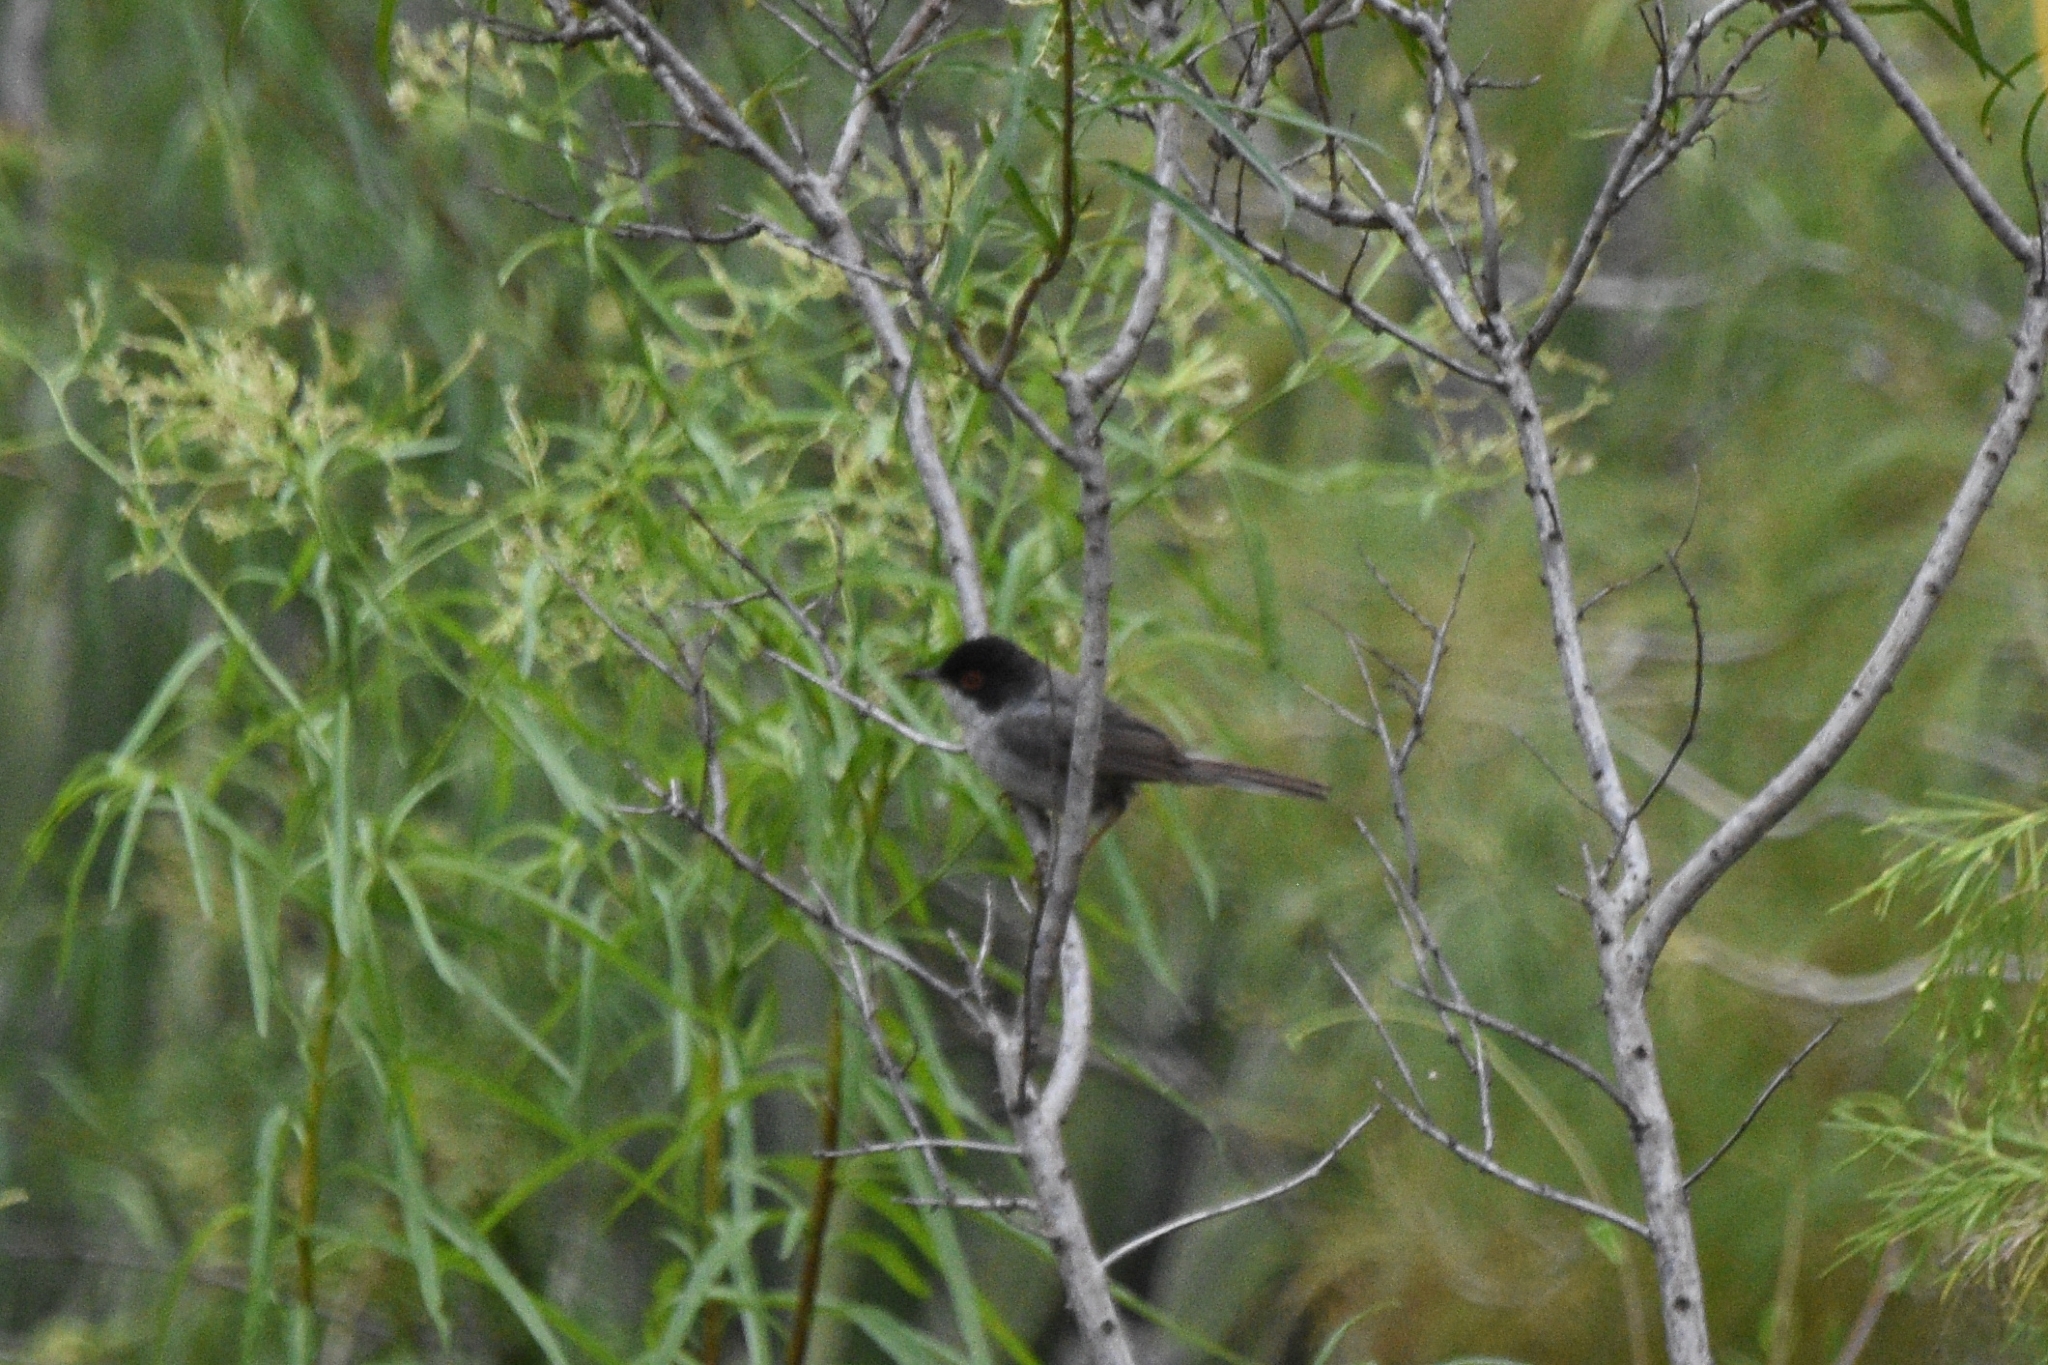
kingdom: Animalia
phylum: Chordata
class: Aves
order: Passeriformes
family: Sylviidae
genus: Curruca
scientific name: Curruca melanocephala
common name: Sardinian warbler
